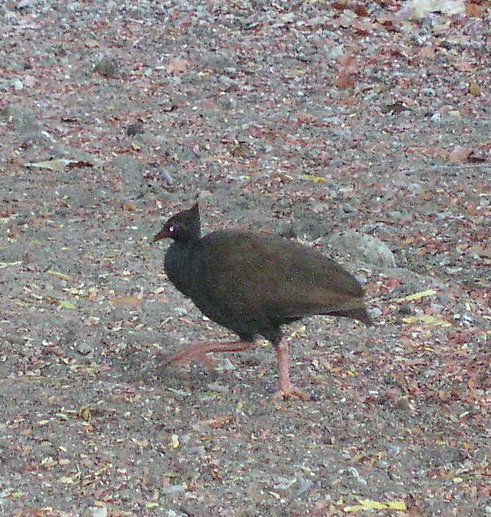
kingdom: Animalia
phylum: Chordata
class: Aves
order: Galliformes
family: Megapodiidae
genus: Megapodius
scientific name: Megapodius reinwardt
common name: Orange-footed scrubfowl
